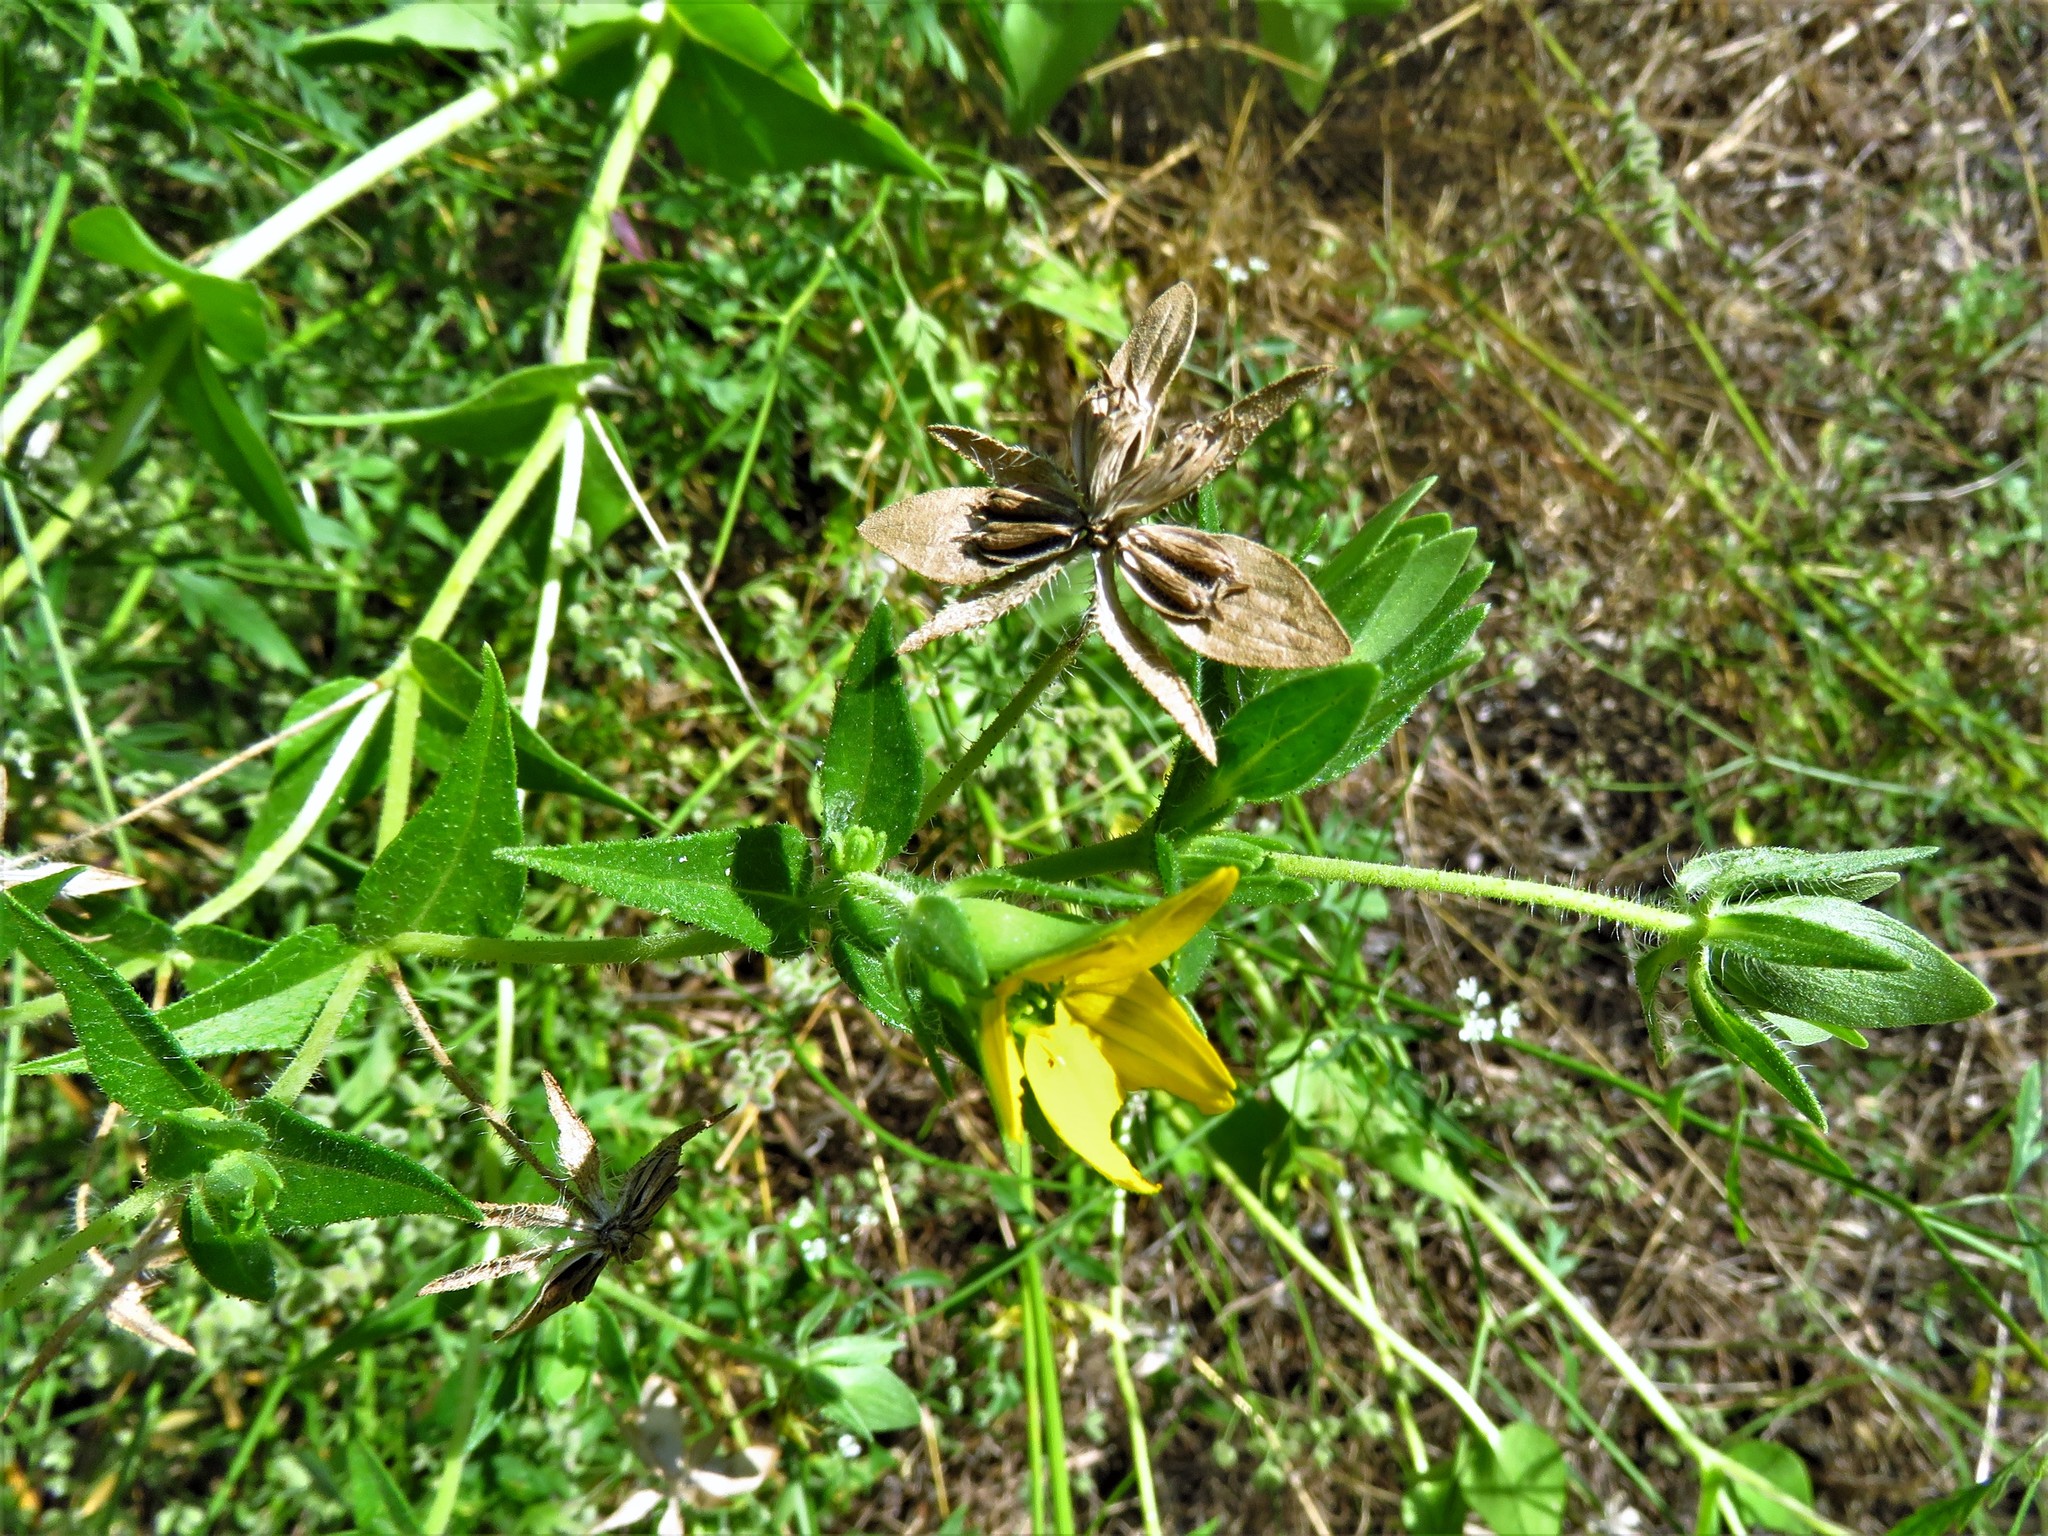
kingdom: Plantae
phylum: Tracheophyta
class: Magnoliopsida
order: Asterales
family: Asteraceae
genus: Lindheimera
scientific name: Lindheimera texana
